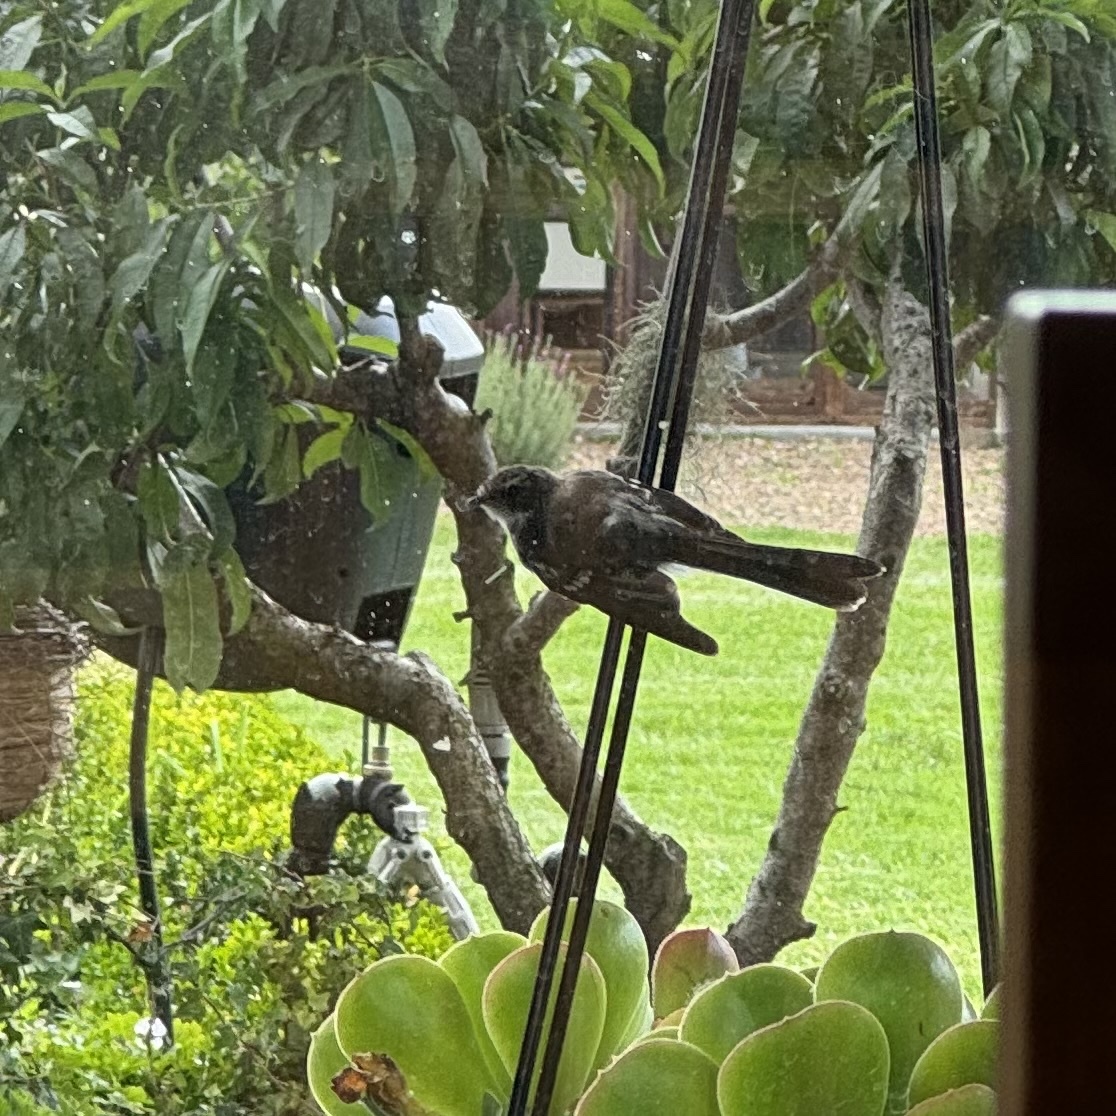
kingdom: Animalia
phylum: Chordata
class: Aves
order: Passeriformes
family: Rhipiduridae
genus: Rhipidura
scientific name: Rhipidura albiscapa
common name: Grey fantail
